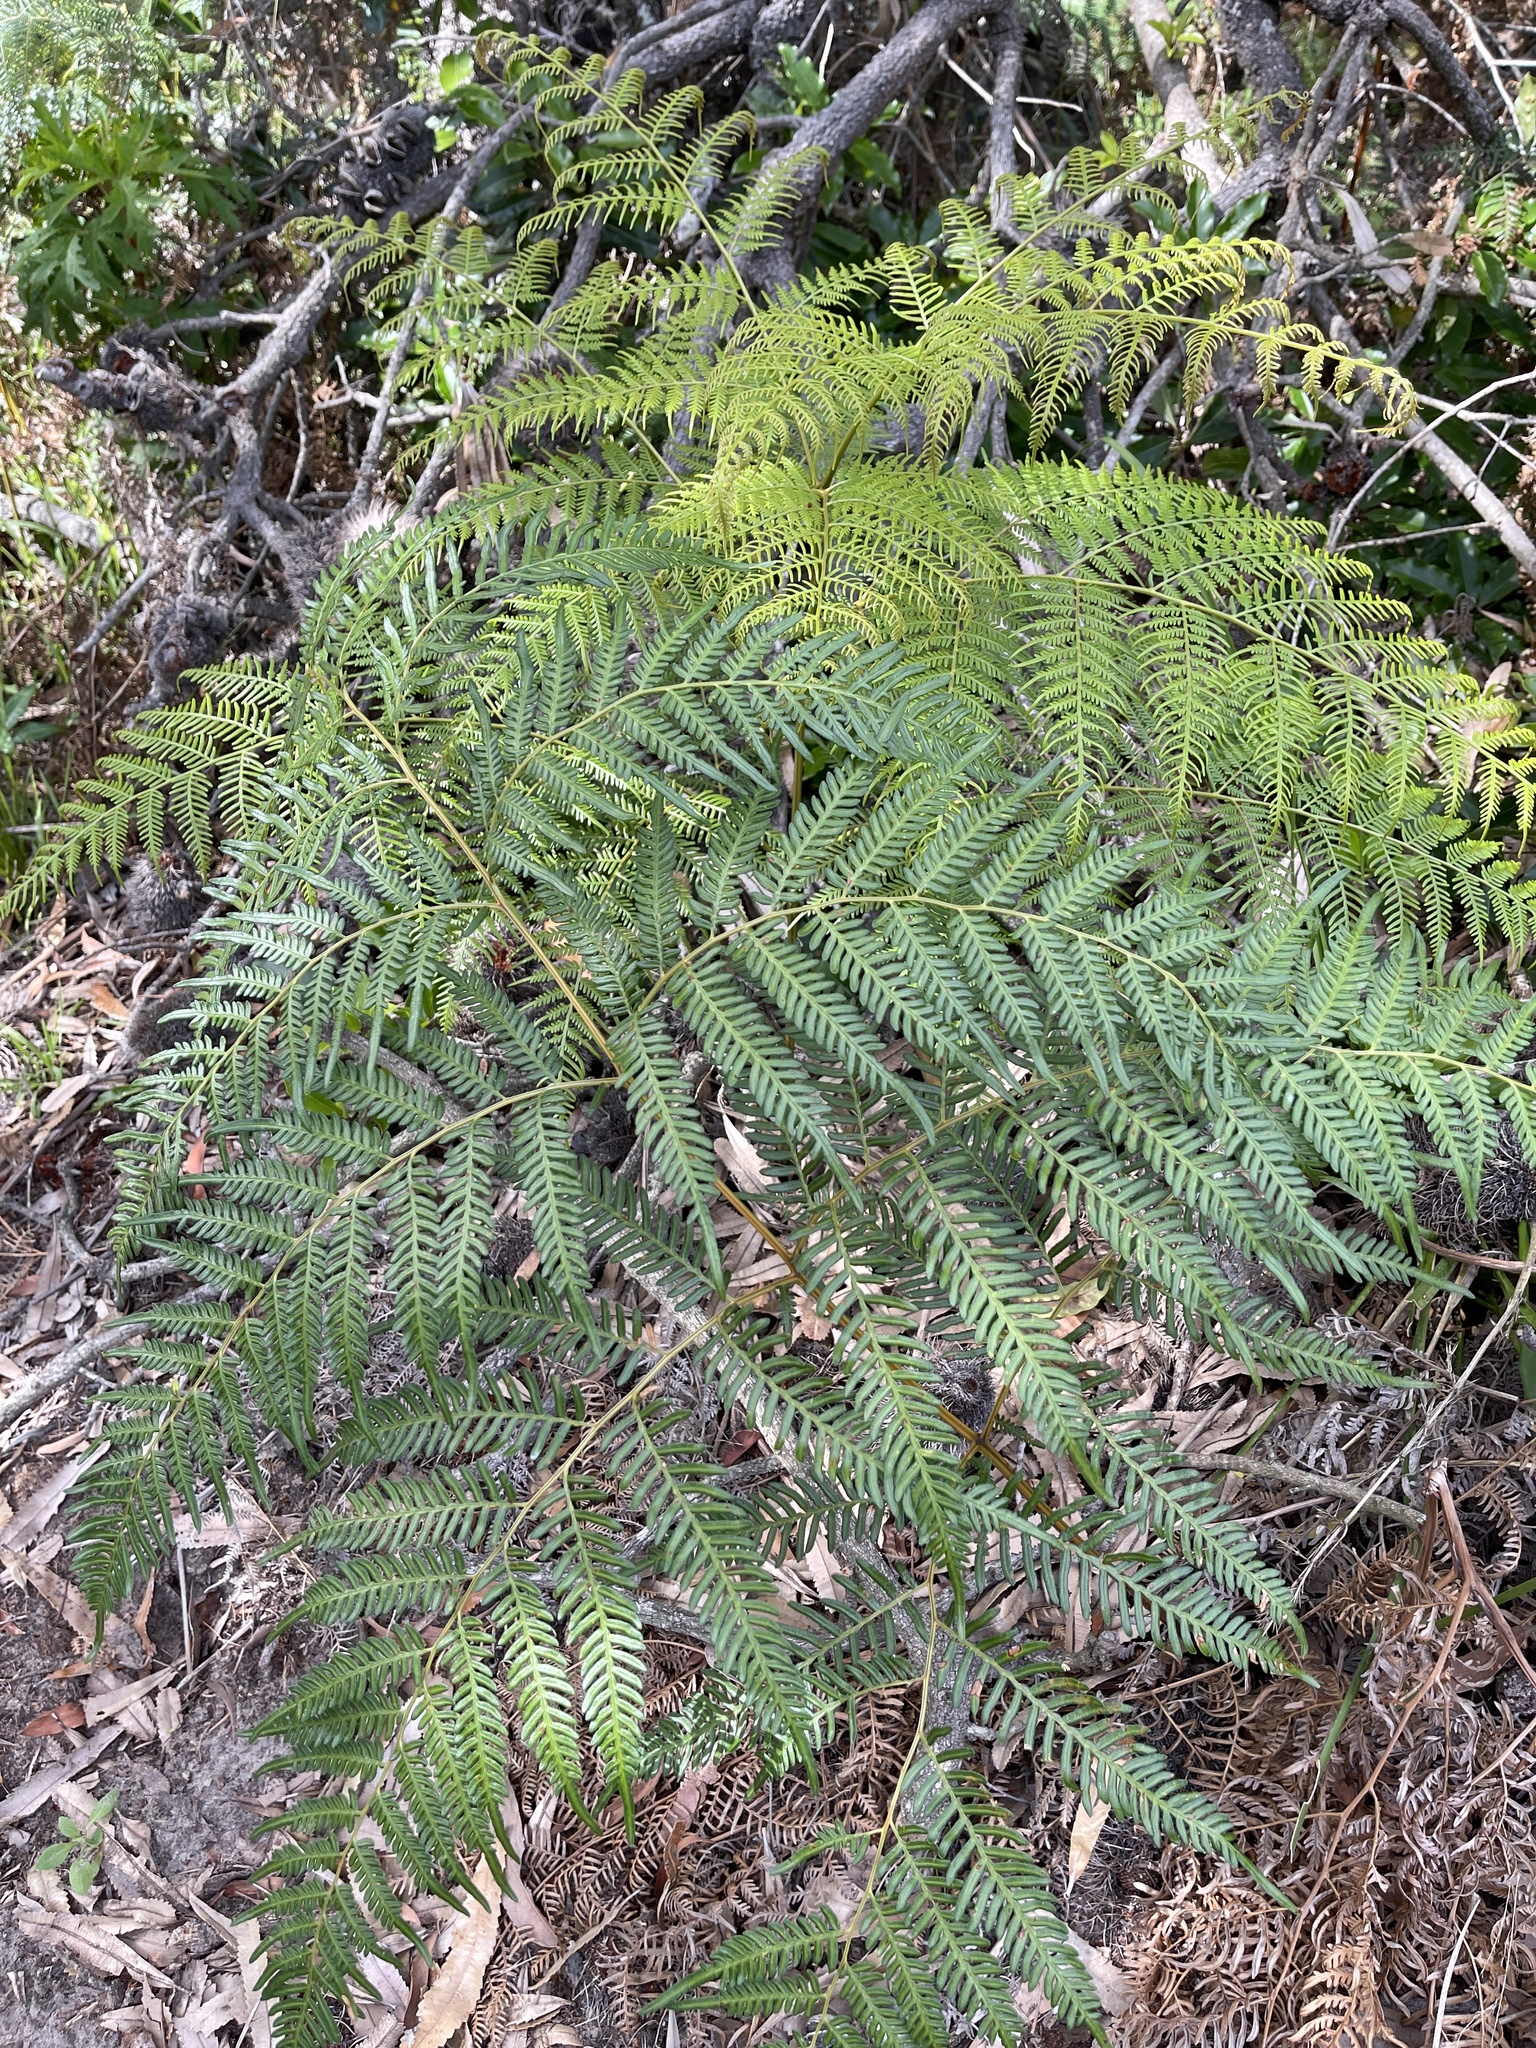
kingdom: Plantae
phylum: Tracheophyta
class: Polypodiopsida
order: Polypodiales
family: Dennstaedtiaceae
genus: Pteridium
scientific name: Pteridium esculentum
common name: Bracken fern
